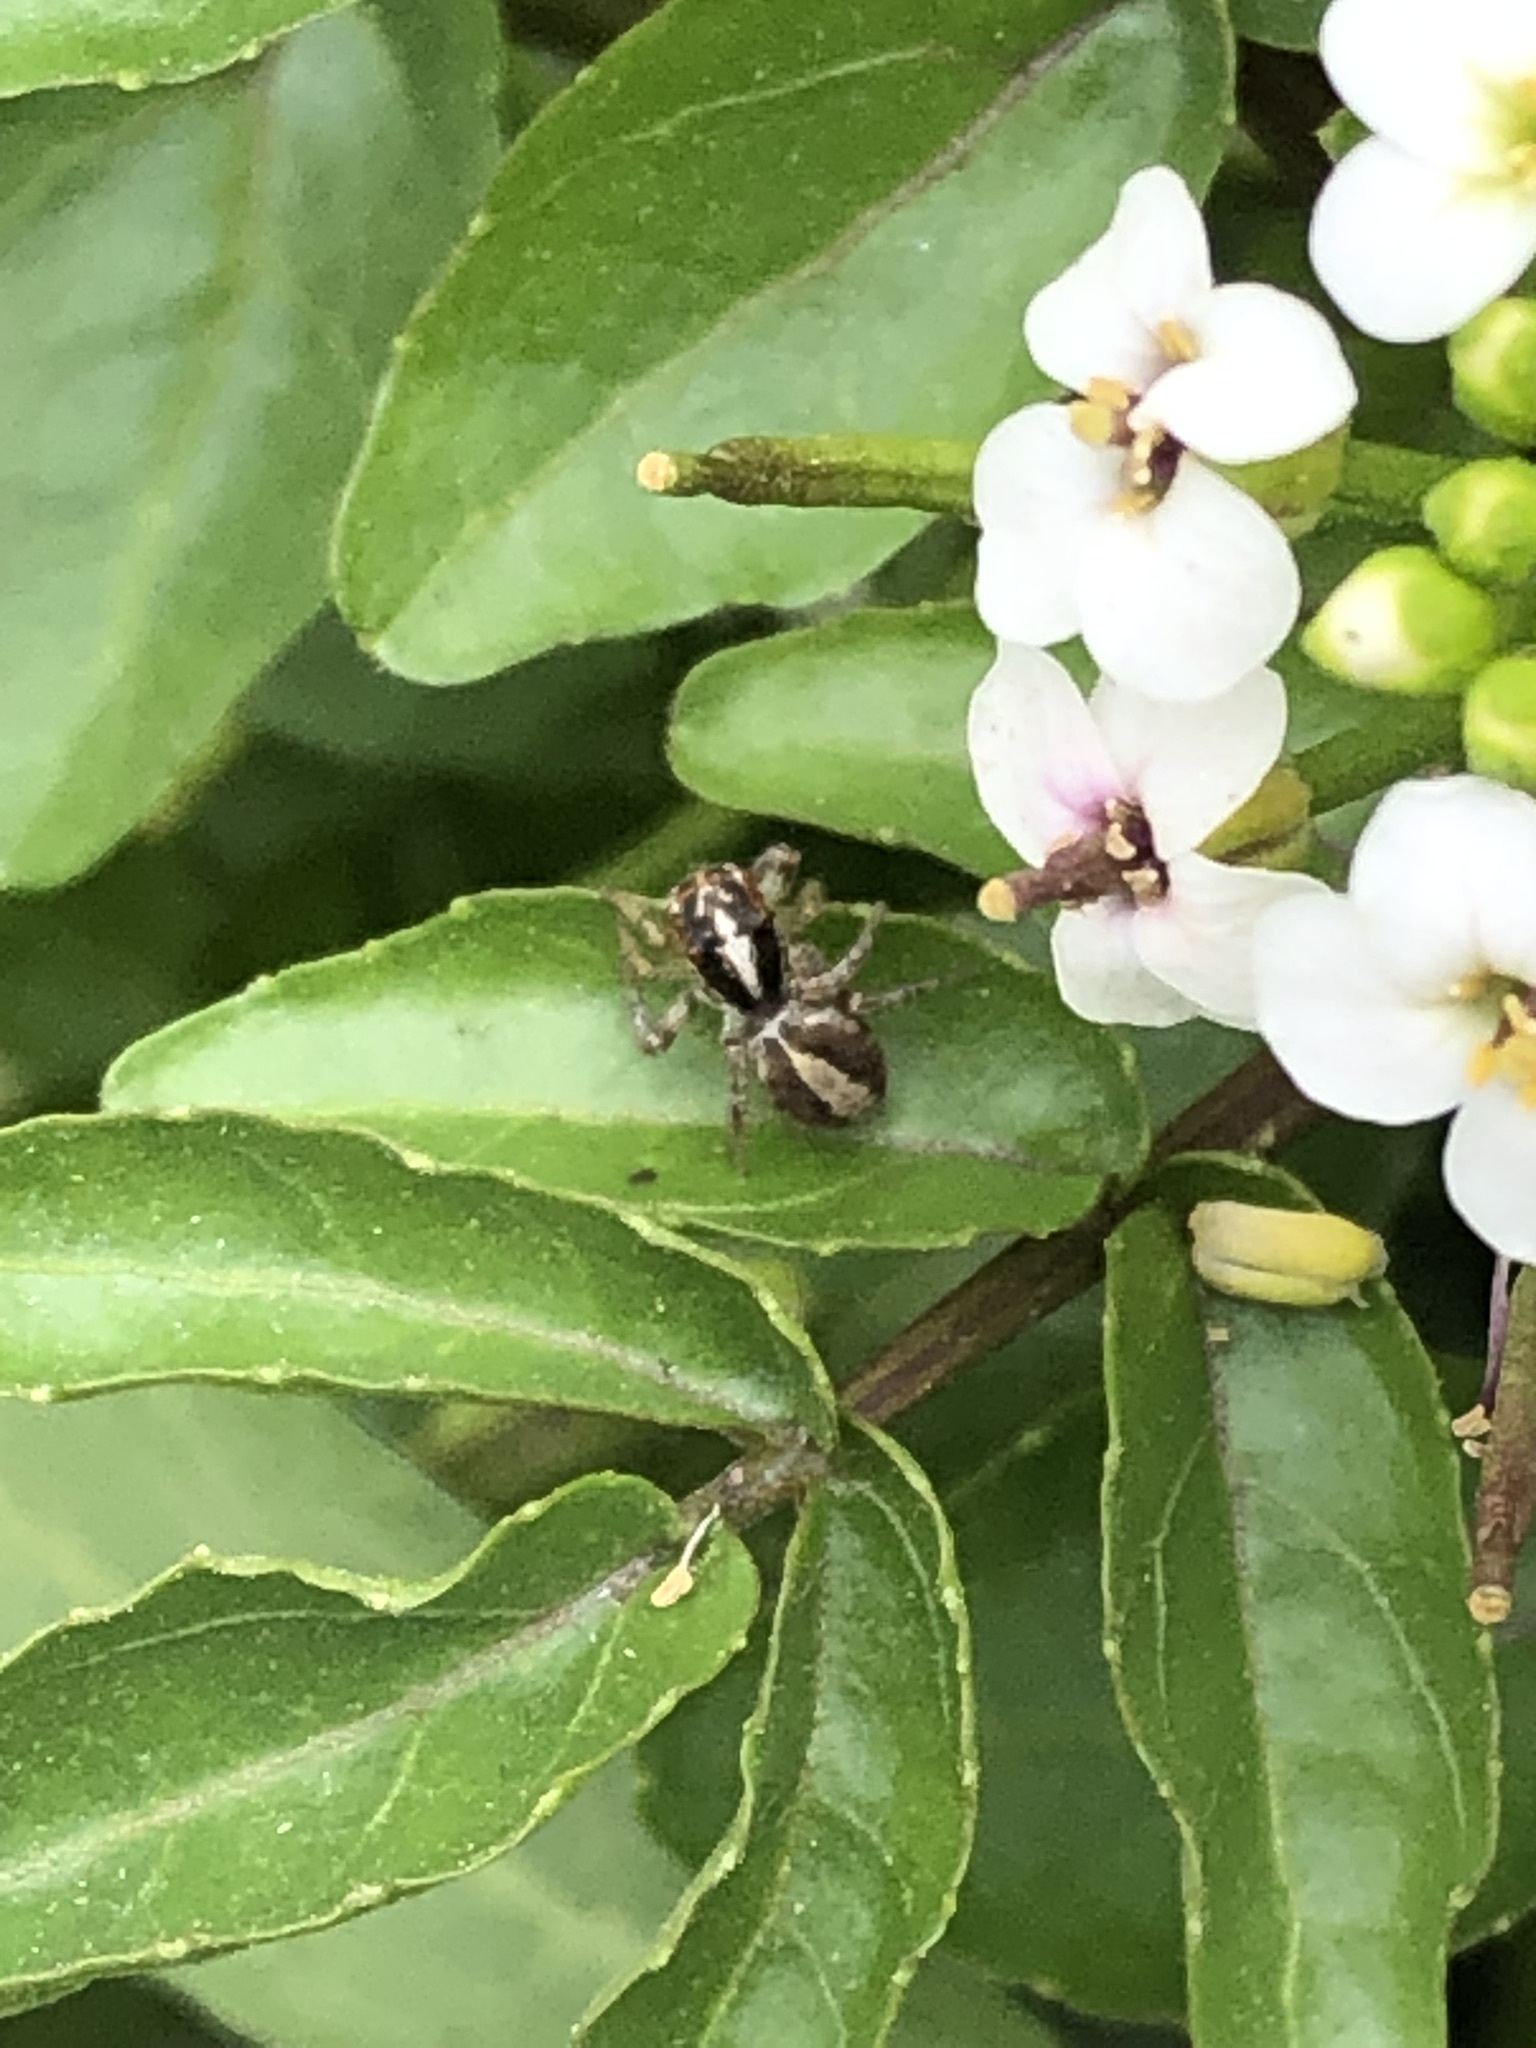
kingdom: Animalia
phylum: Arthropoda
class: Arachnida
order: Araneae
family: Salticidae
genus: Frigga
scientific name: Frigga crocuta
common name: Jumping spiders
